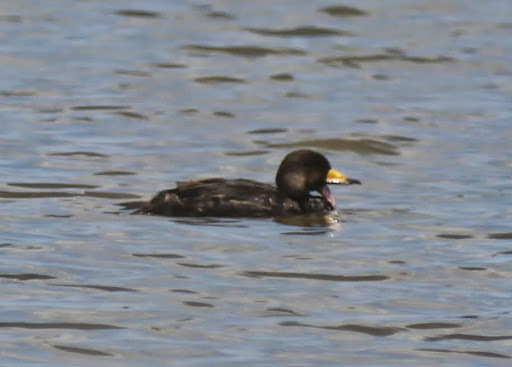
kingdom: Animalia
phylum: Chordata
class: Aves
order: Anseriformes
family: Anatidae
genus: Melanitta
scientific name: Melanitta americana
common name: Black scoter
